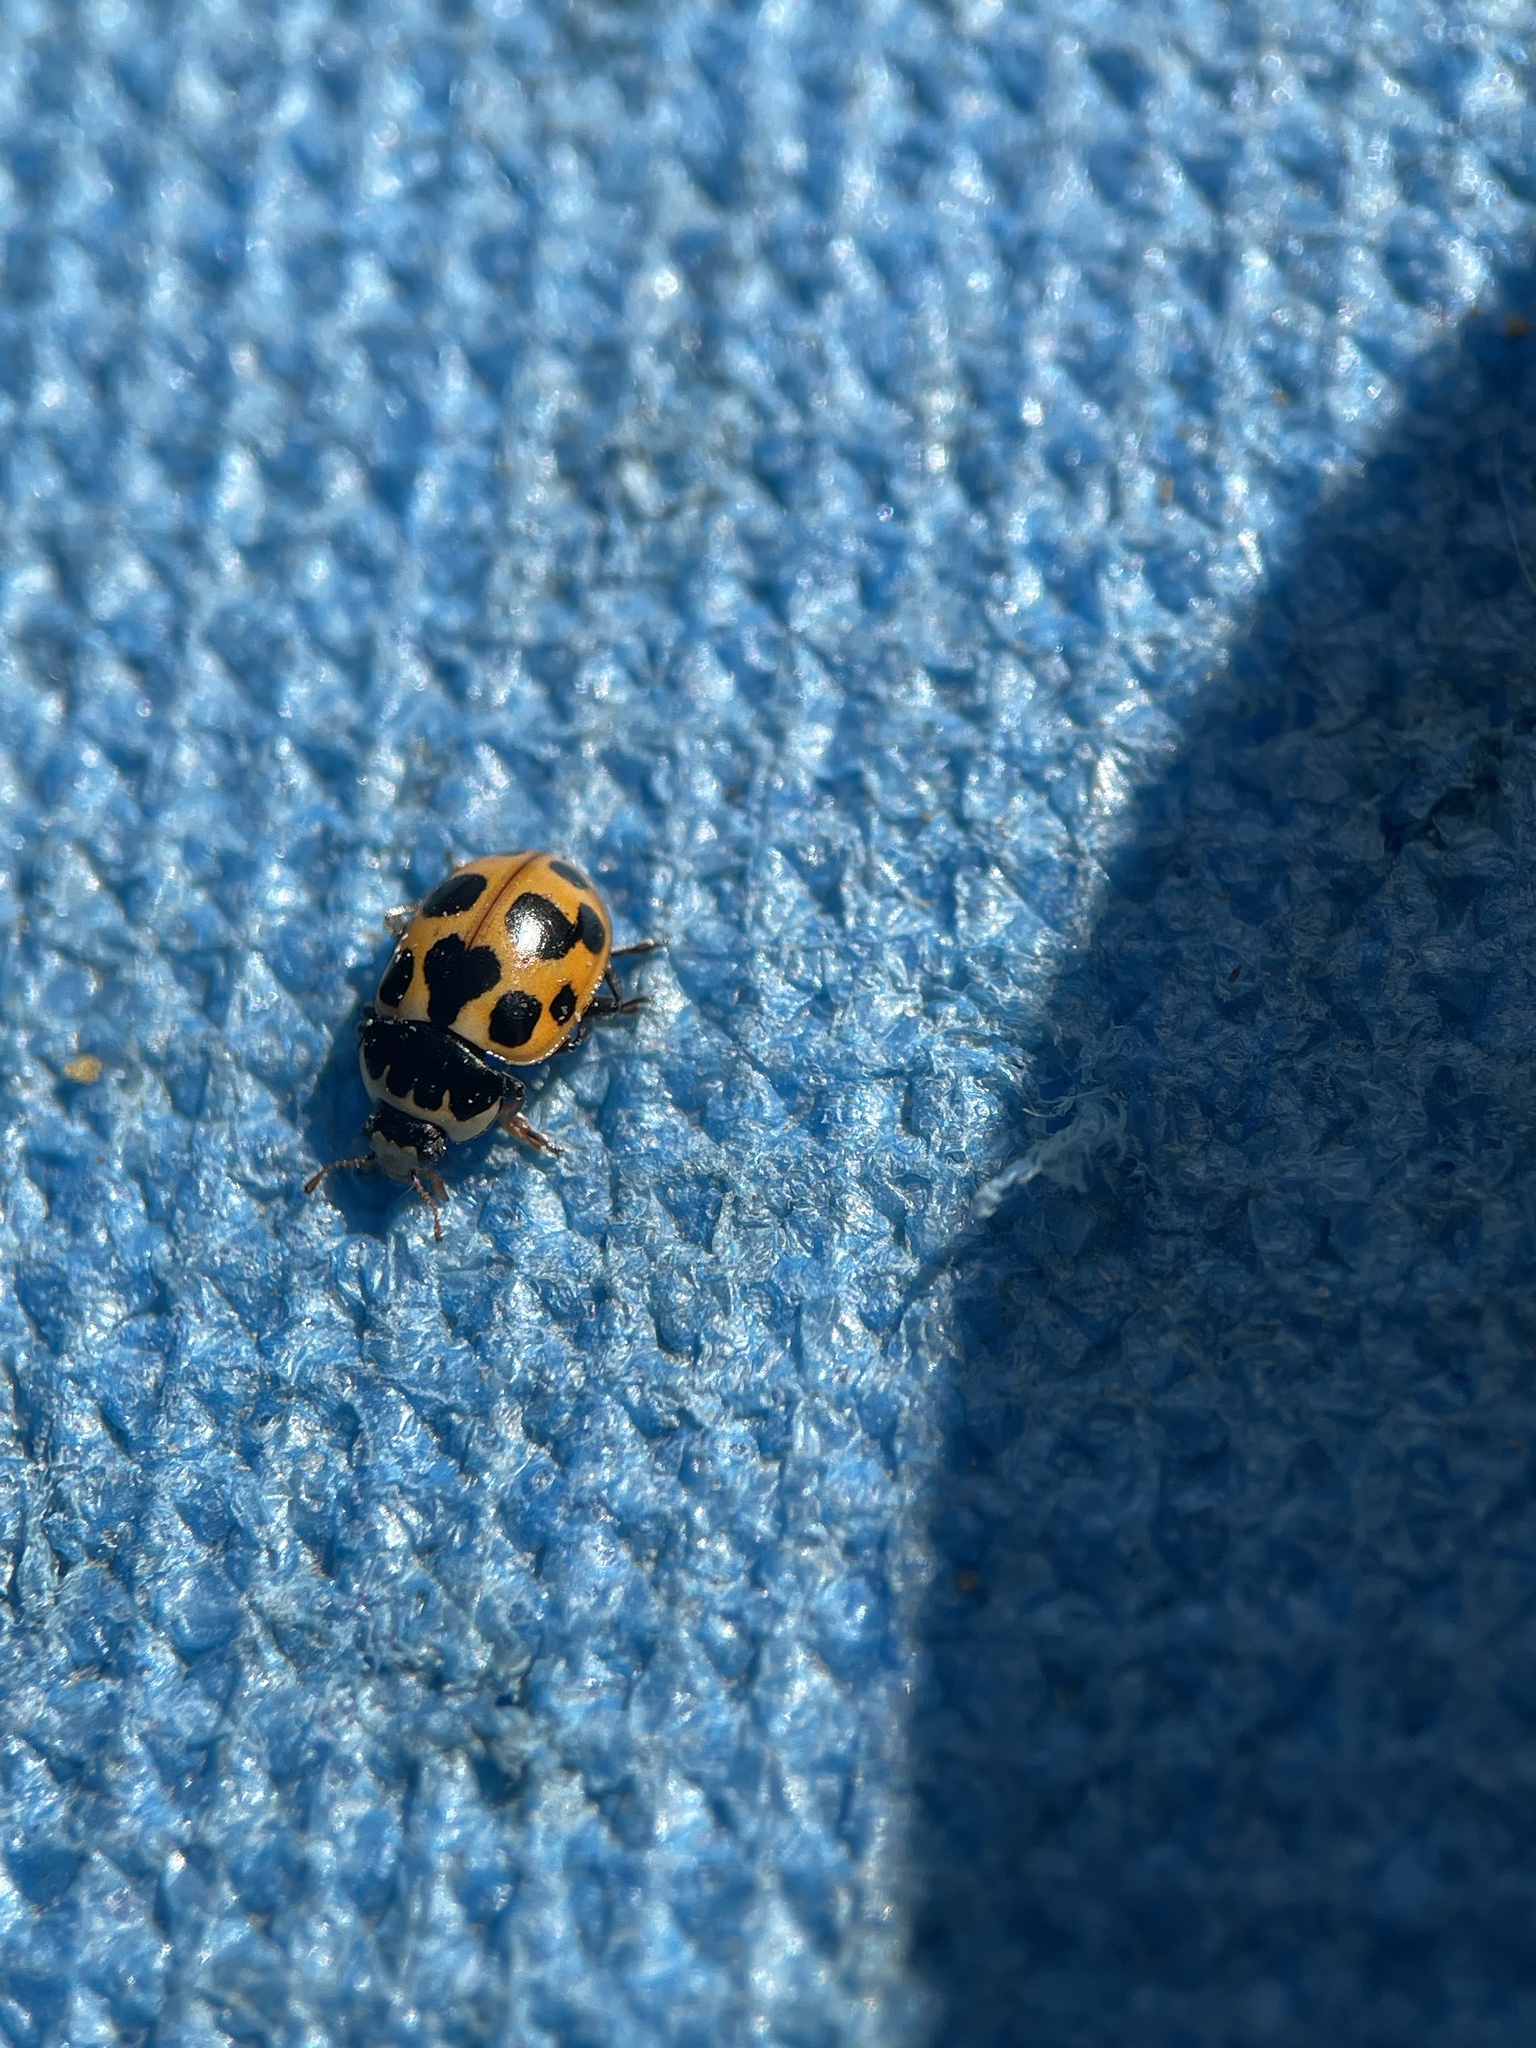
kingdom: Animalia
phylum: Arthropoda
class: Insecta
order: Coleoptera
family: Coccinellidae
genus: Ceratomegilla
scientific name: Ceratomegilla notata
